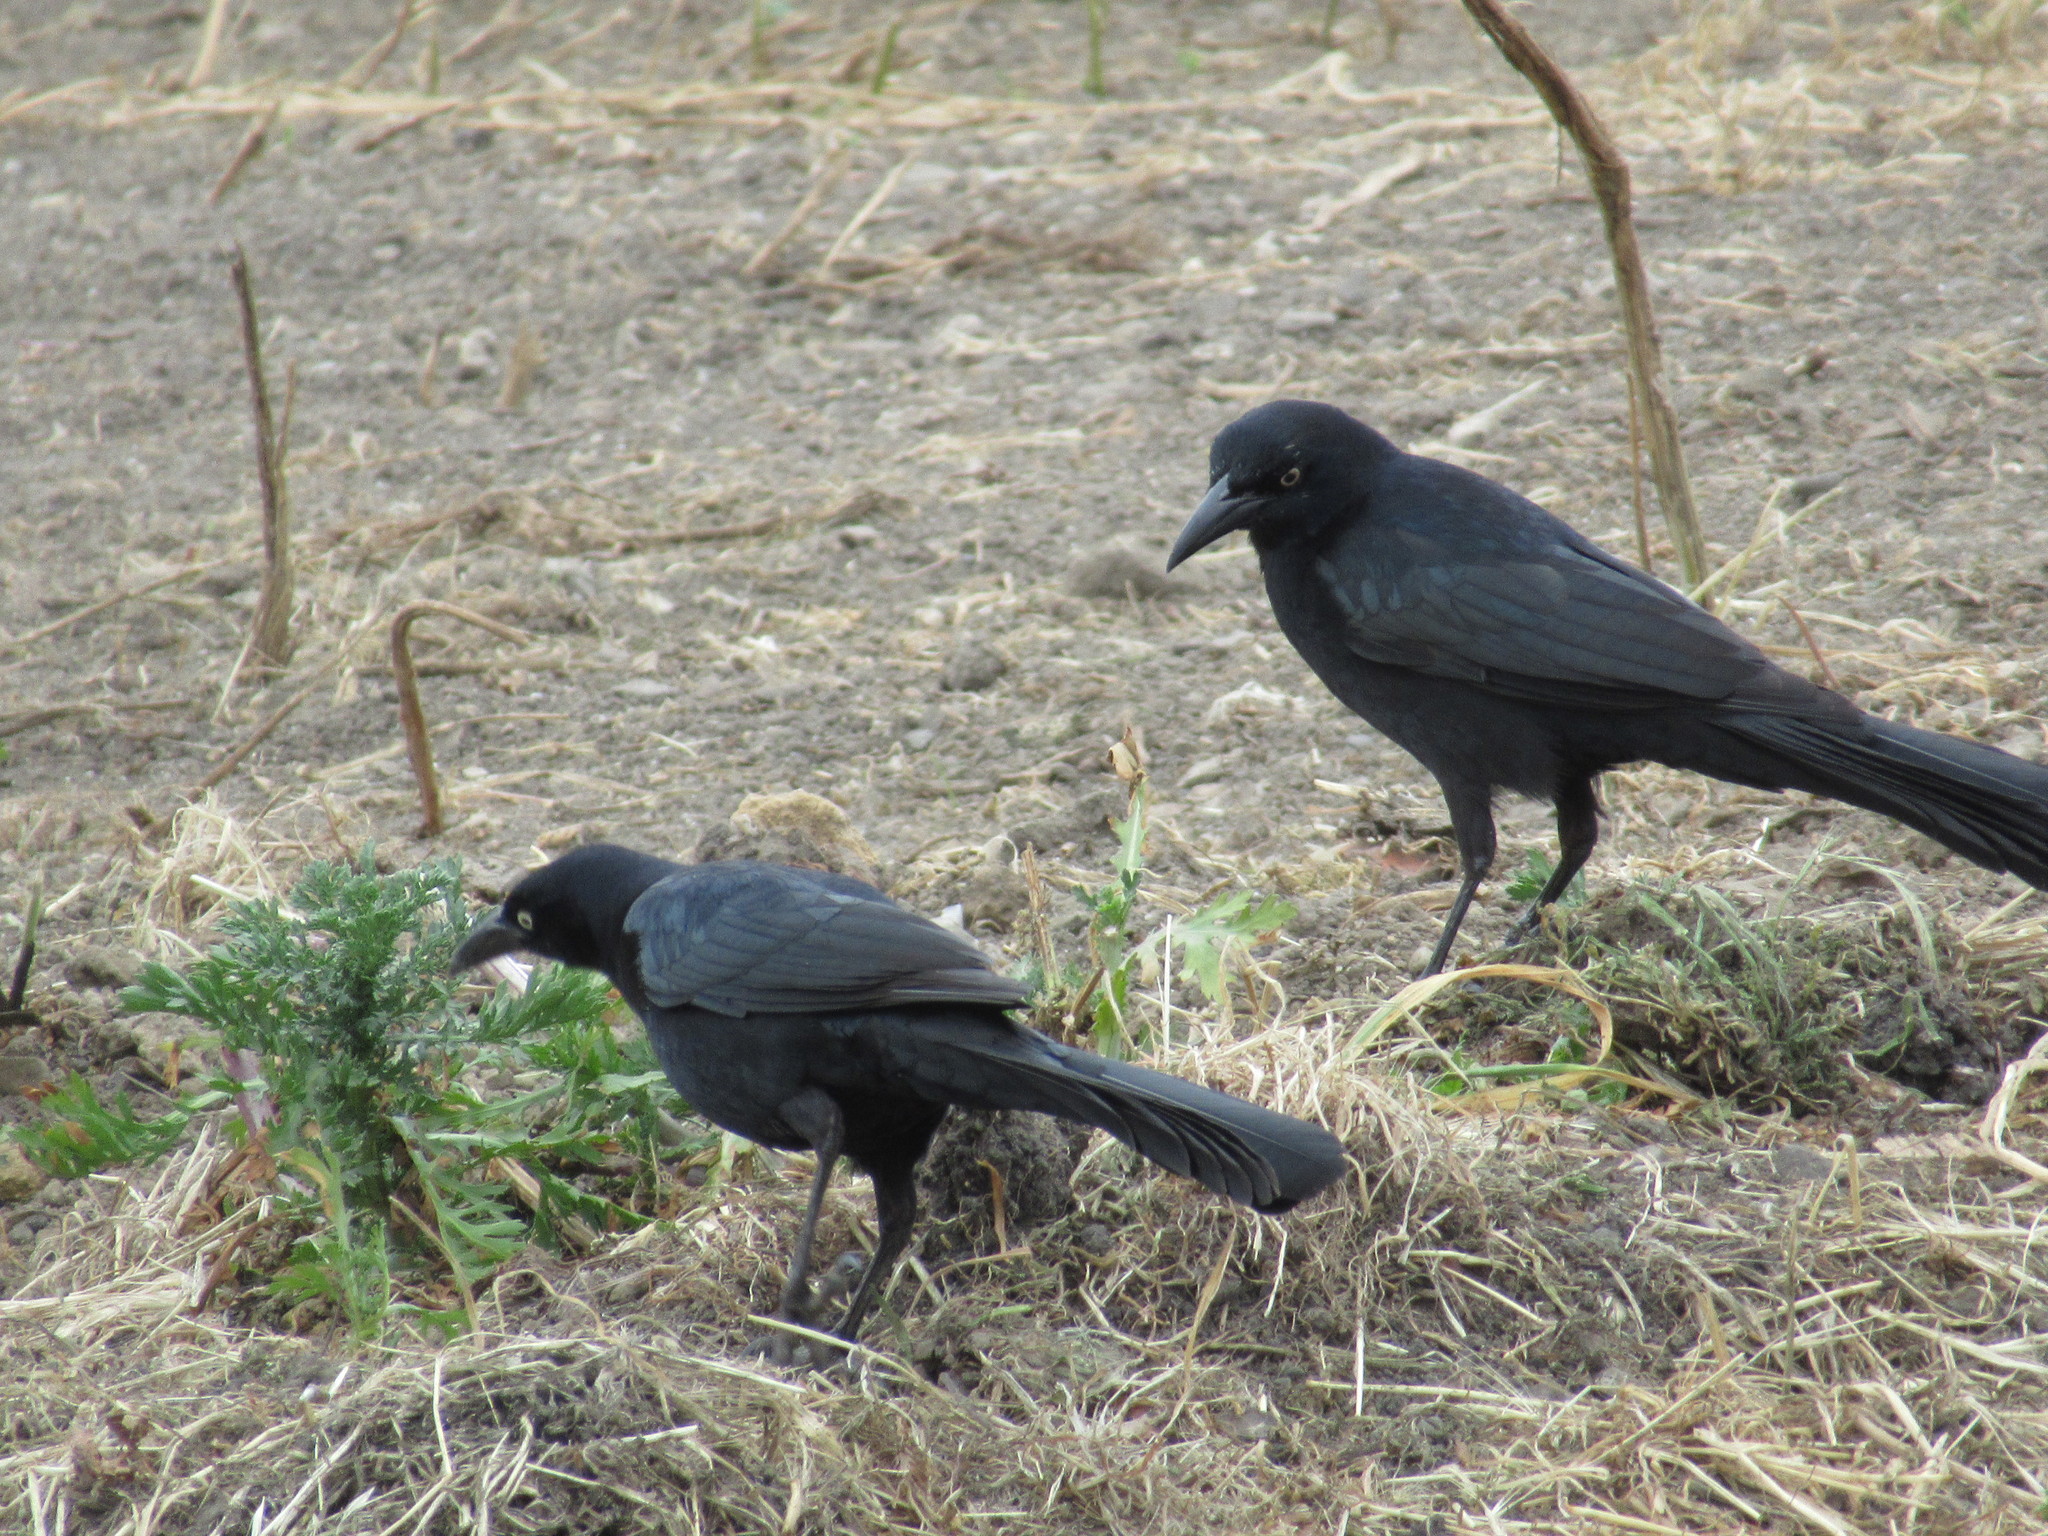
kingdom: Animalia
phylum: Chordata
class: Aves
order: Passeriformes
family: Icteridae
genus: Quiscalus
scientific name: Quiscalus mexicanus
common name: Great-tailed grackle
